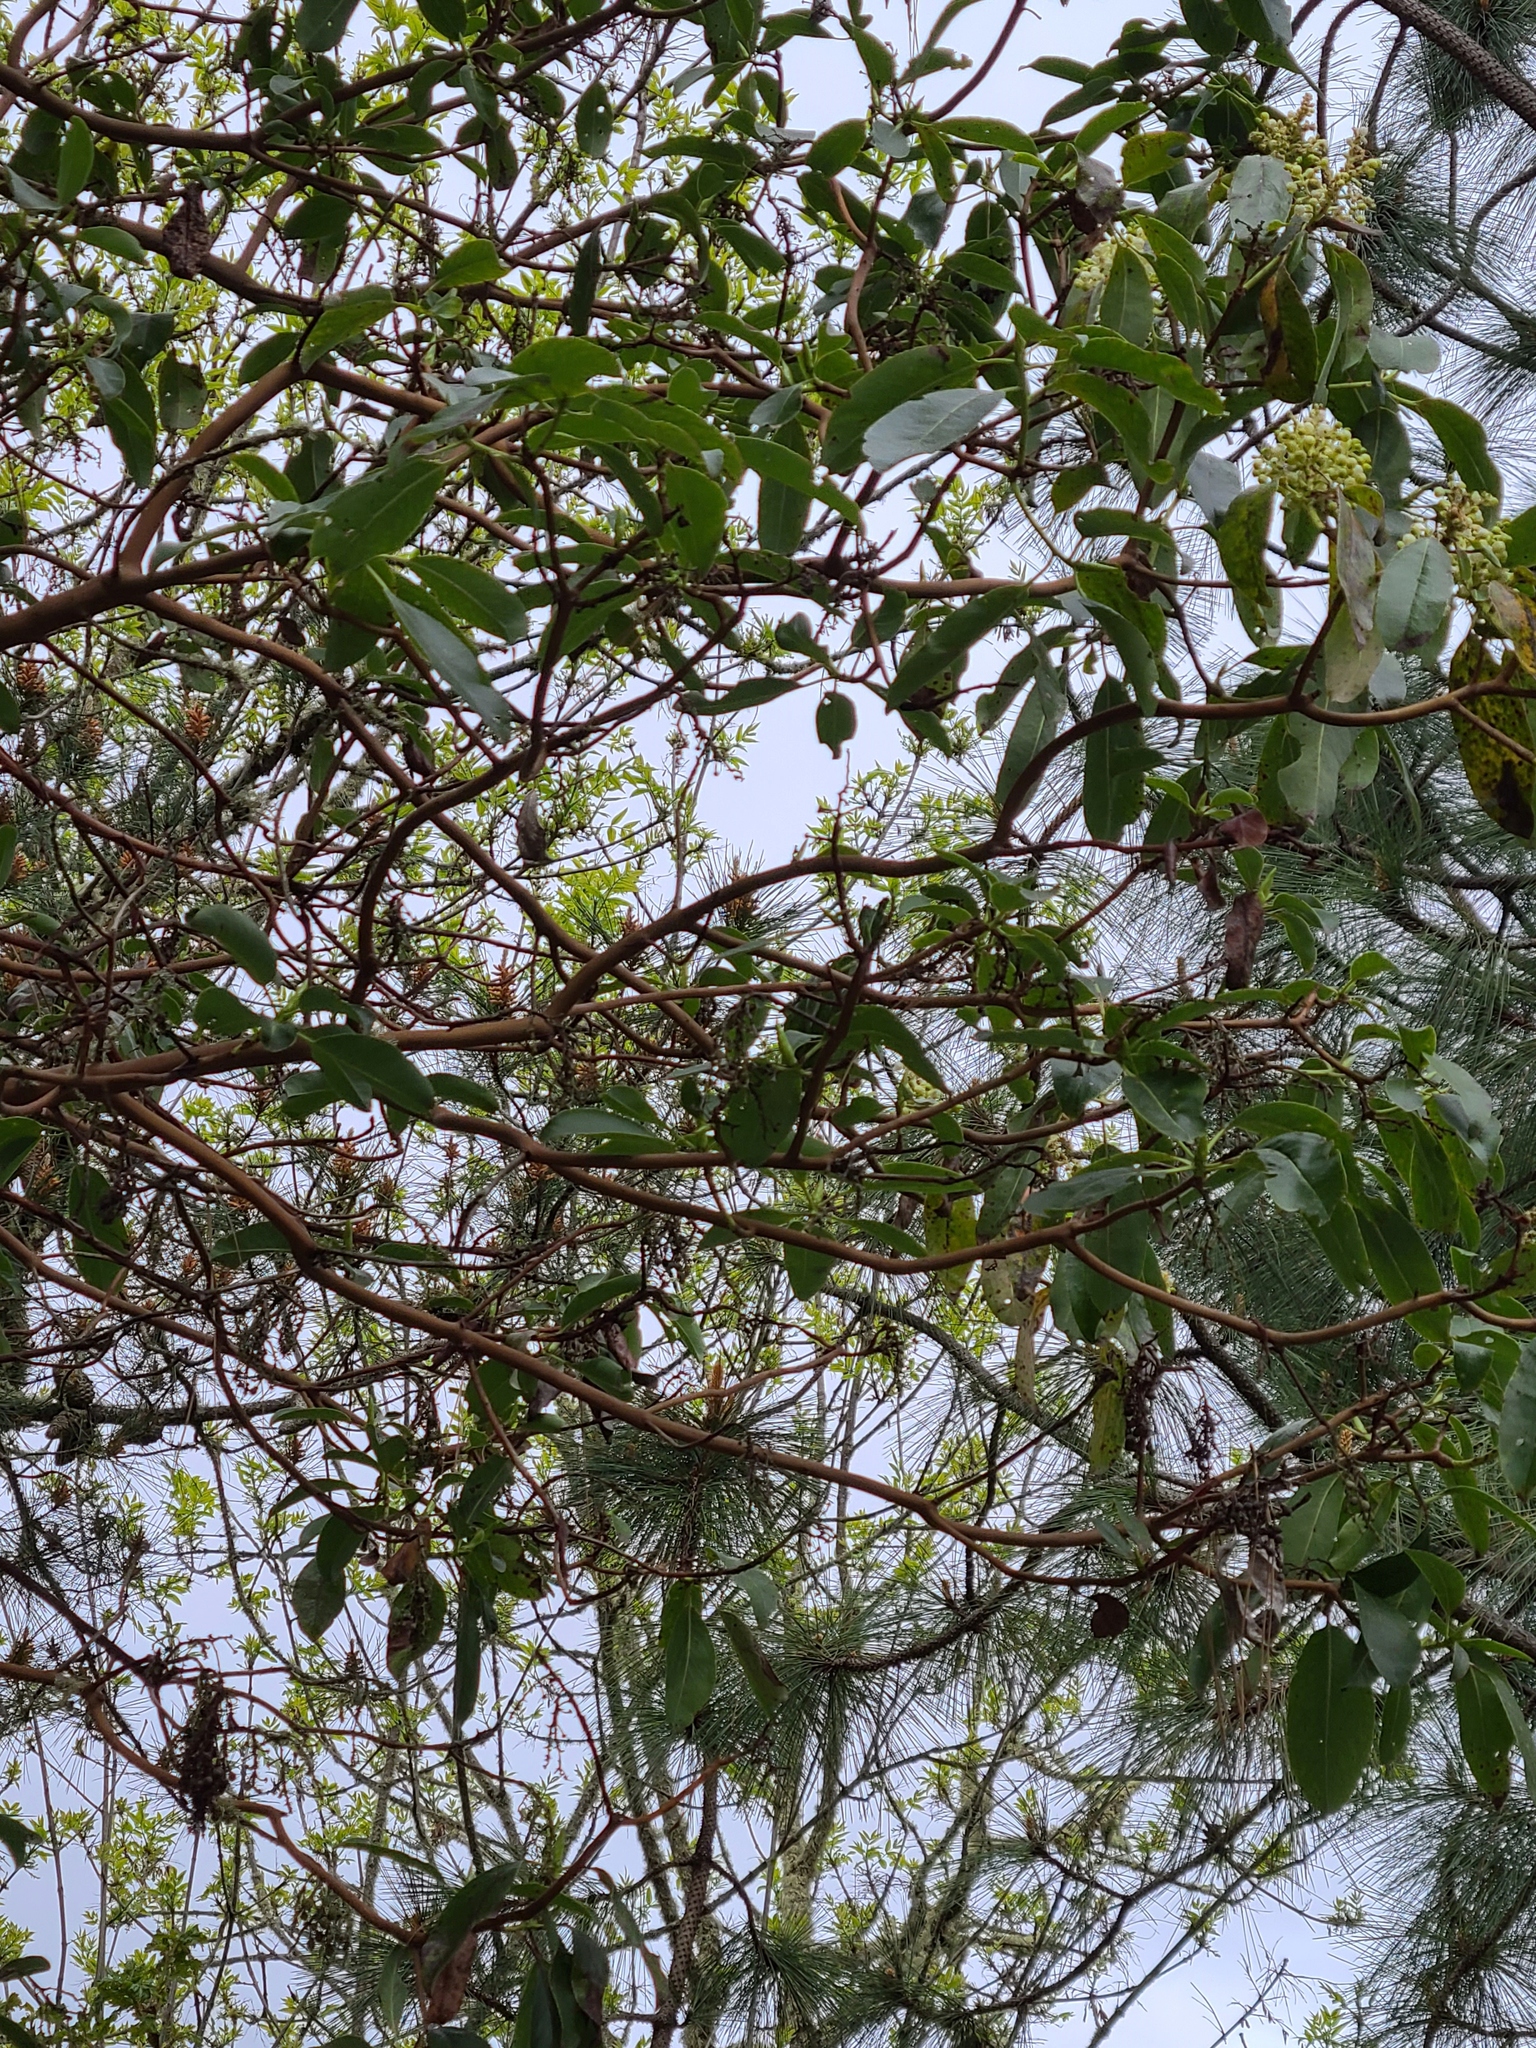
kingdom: Plantae
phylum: Tracheophyta
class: Magnoliopsida
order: Ericales
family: Ericaceae
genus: Arbutus
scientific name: Arbutus menziesii
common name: Pacific madrone
